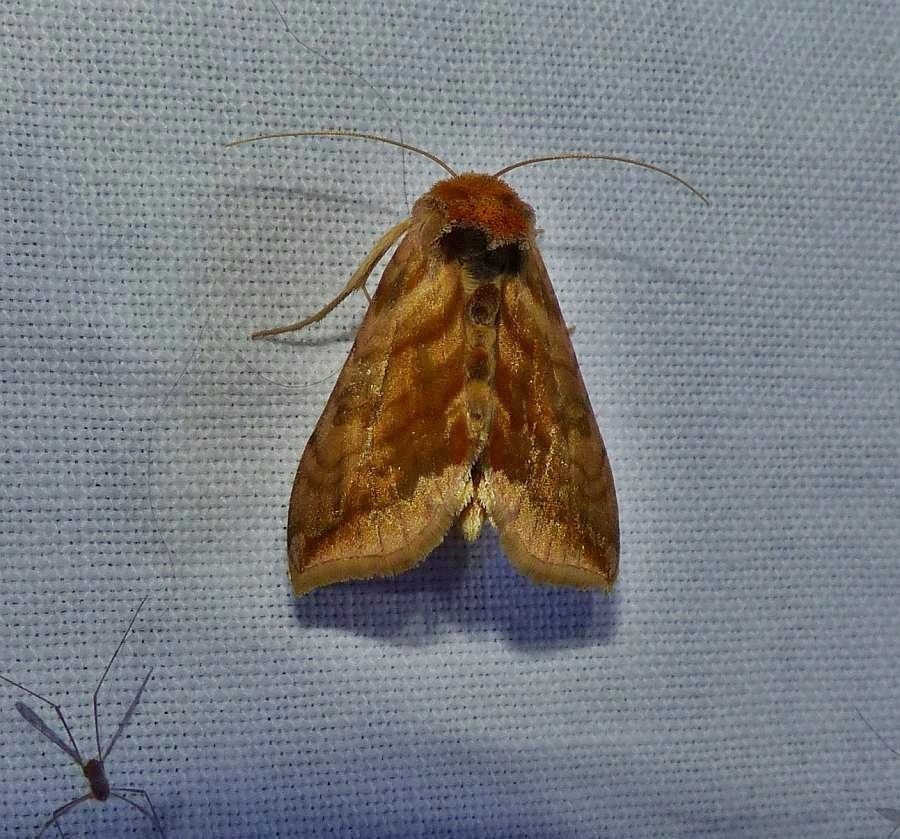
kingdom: Animalia
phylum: Arthropoda
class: Insecta
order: Lepidoptera
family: Noctuidae
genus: Allagrapha
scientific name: Allagrapha aerea
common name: Unspotted looper moth
